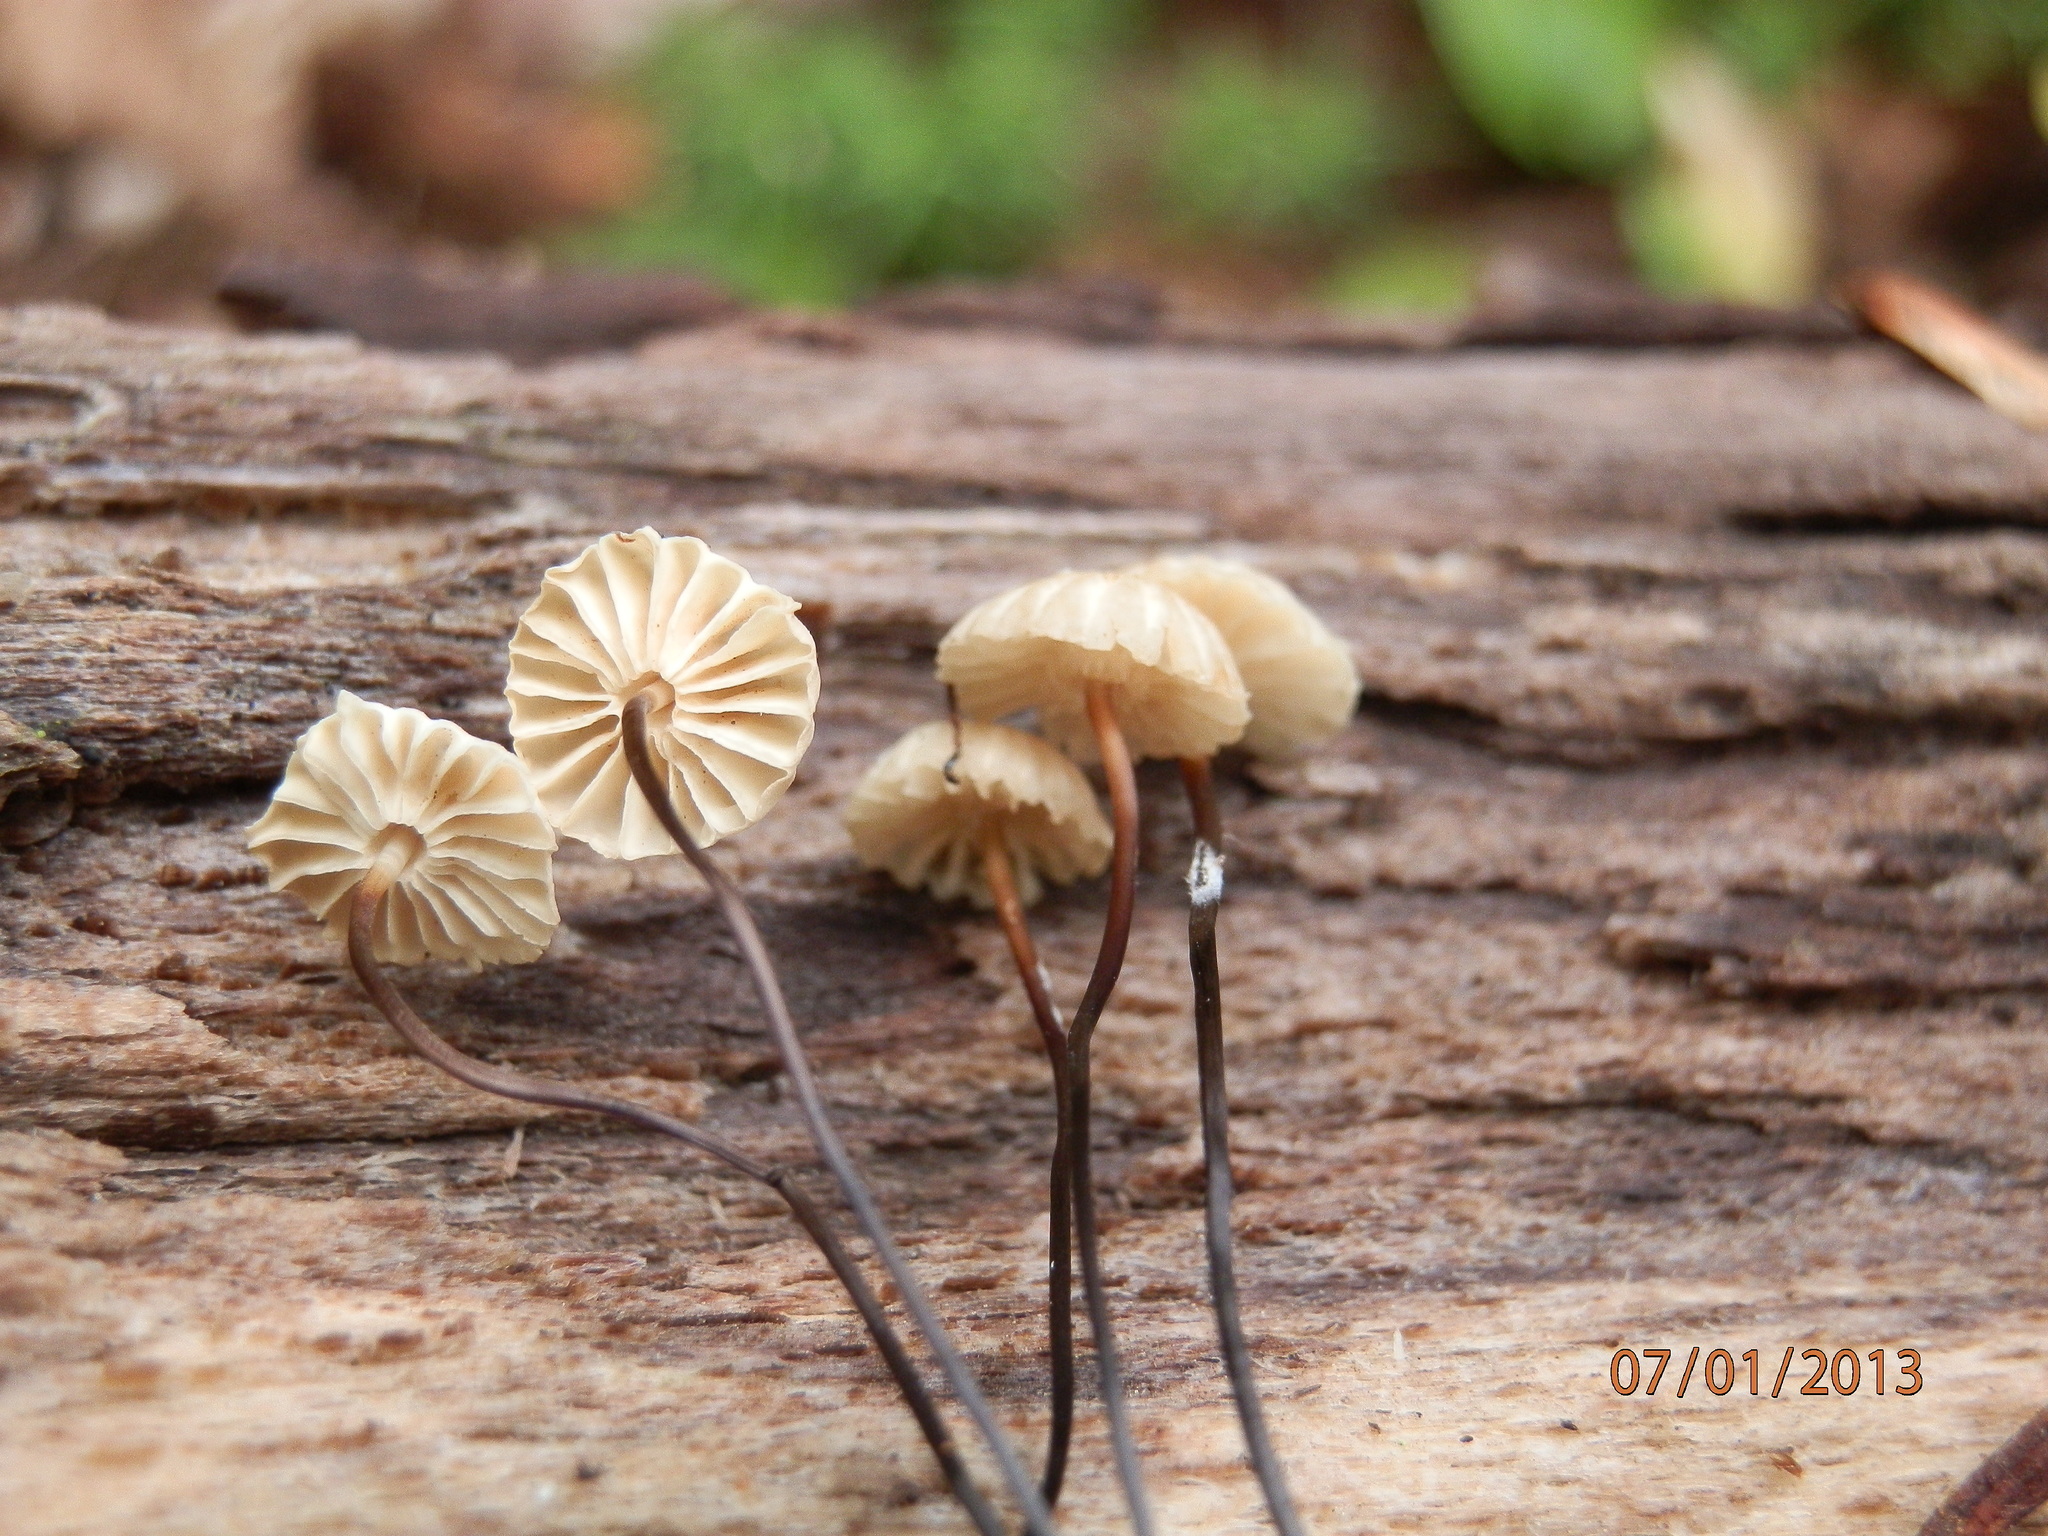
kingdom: Fungi
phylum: Basidiomycota
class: Agaricomycetes
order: Agaricales
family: Marasmiaceae
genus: Marasmius
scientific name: Marasmius rotula
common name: Collared parachute
